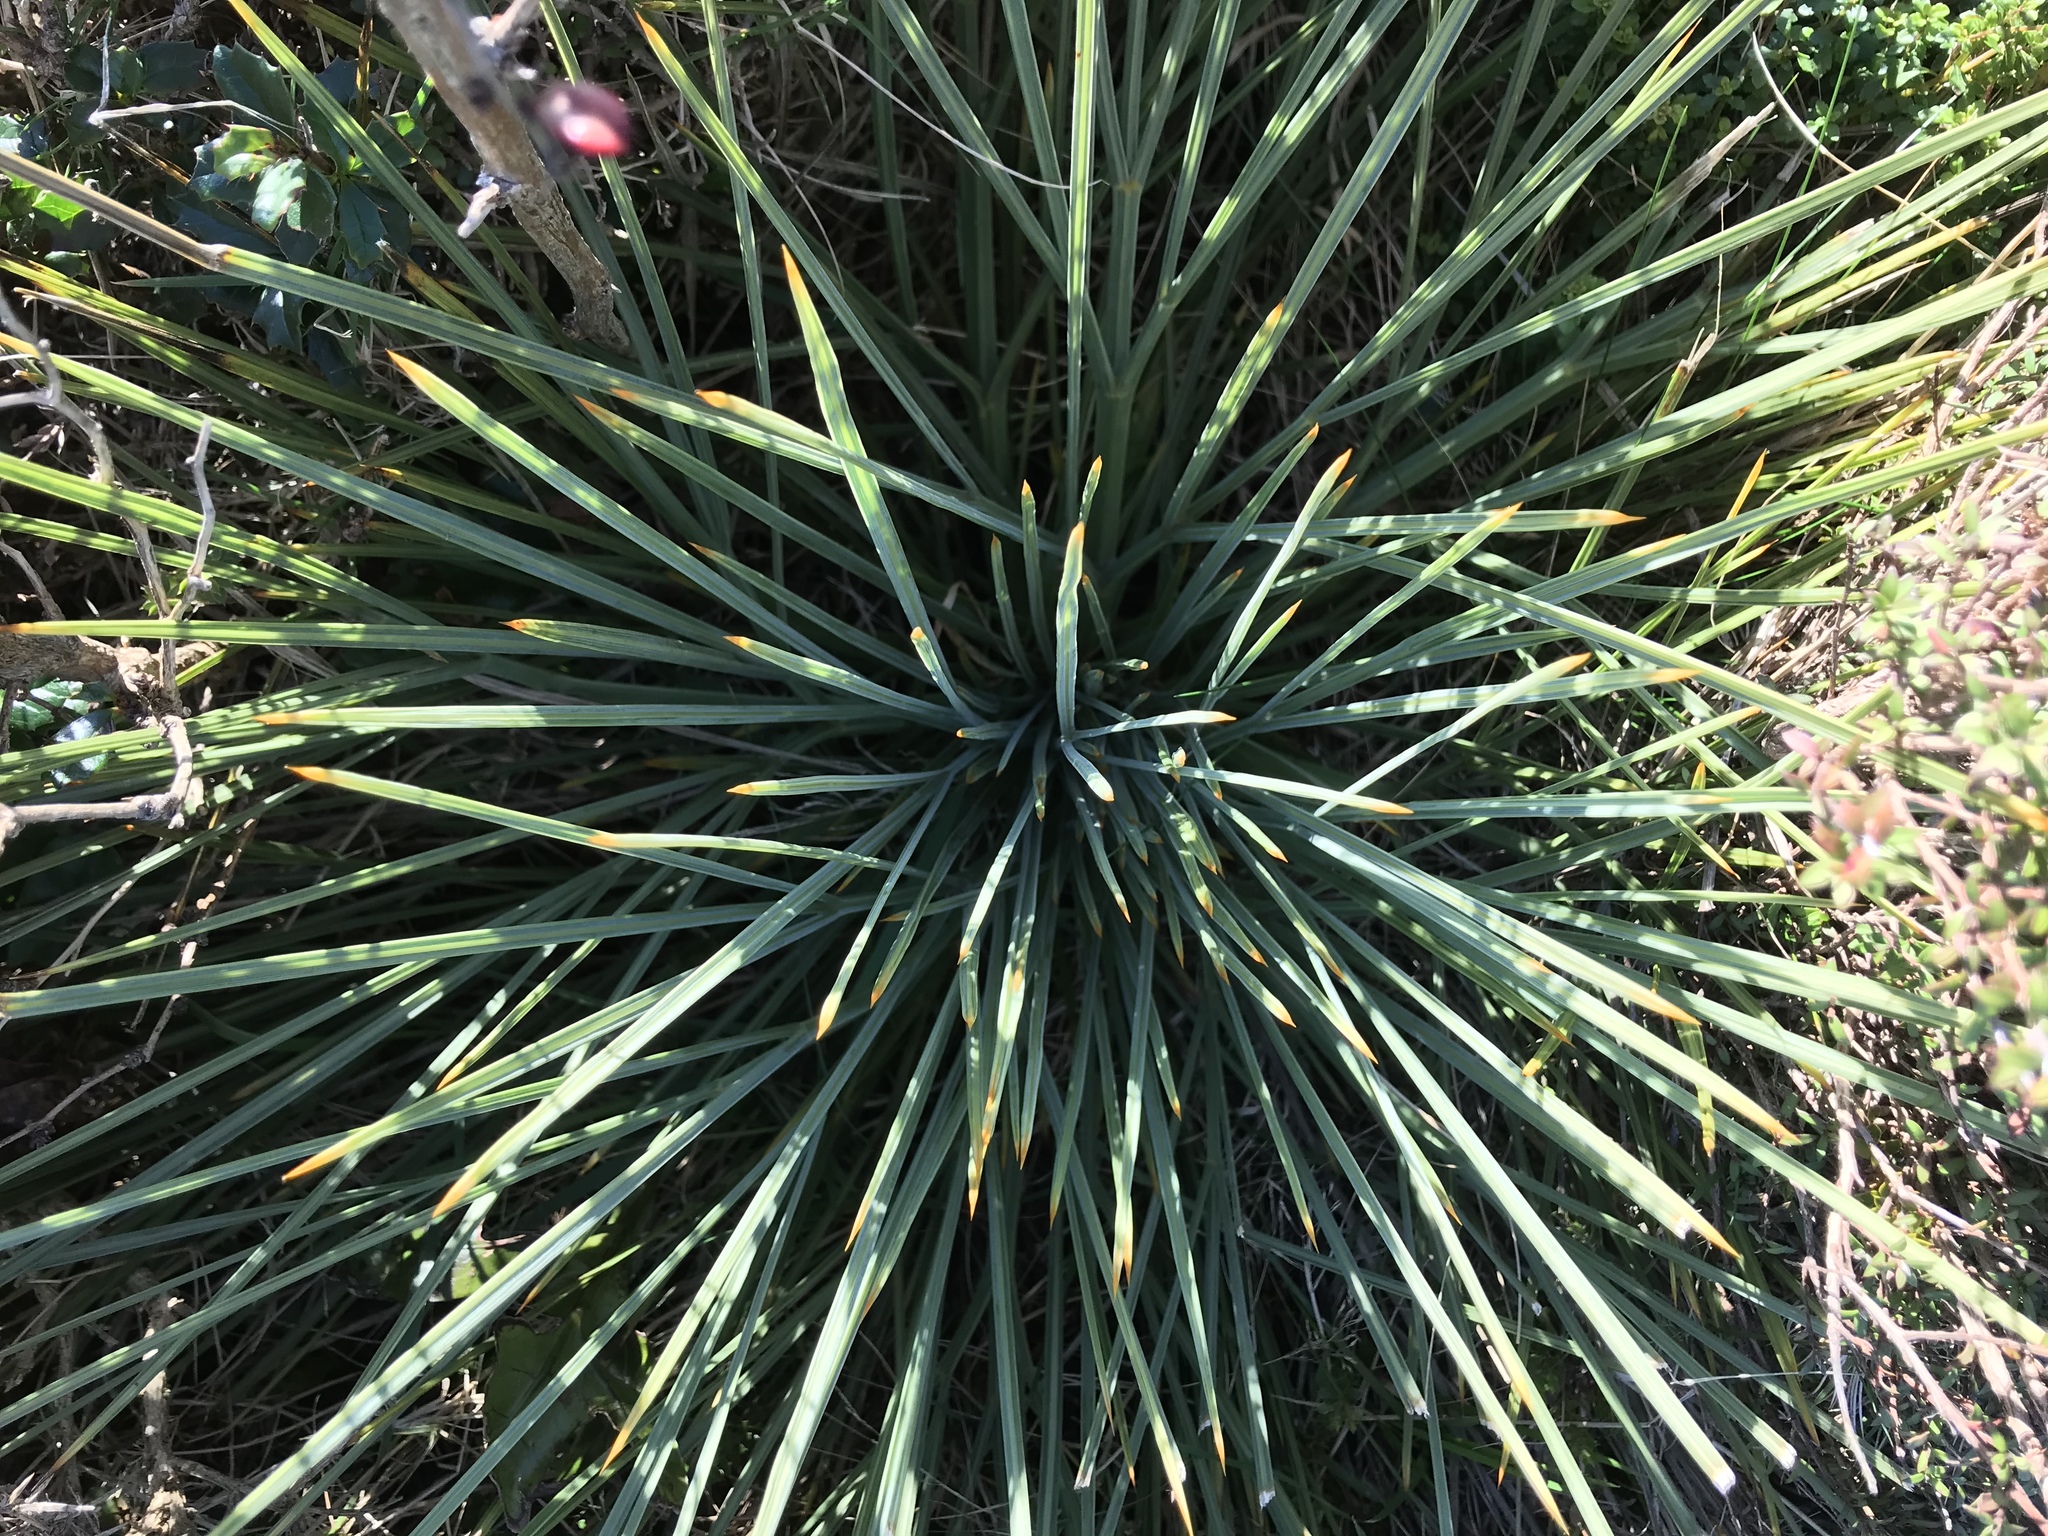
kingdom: Plantae
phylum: Tracheophyta
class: Magnoliopsida
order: Apiales
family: Apiaceae
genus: Aciphylla
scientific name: Aciphylla squarrosa
